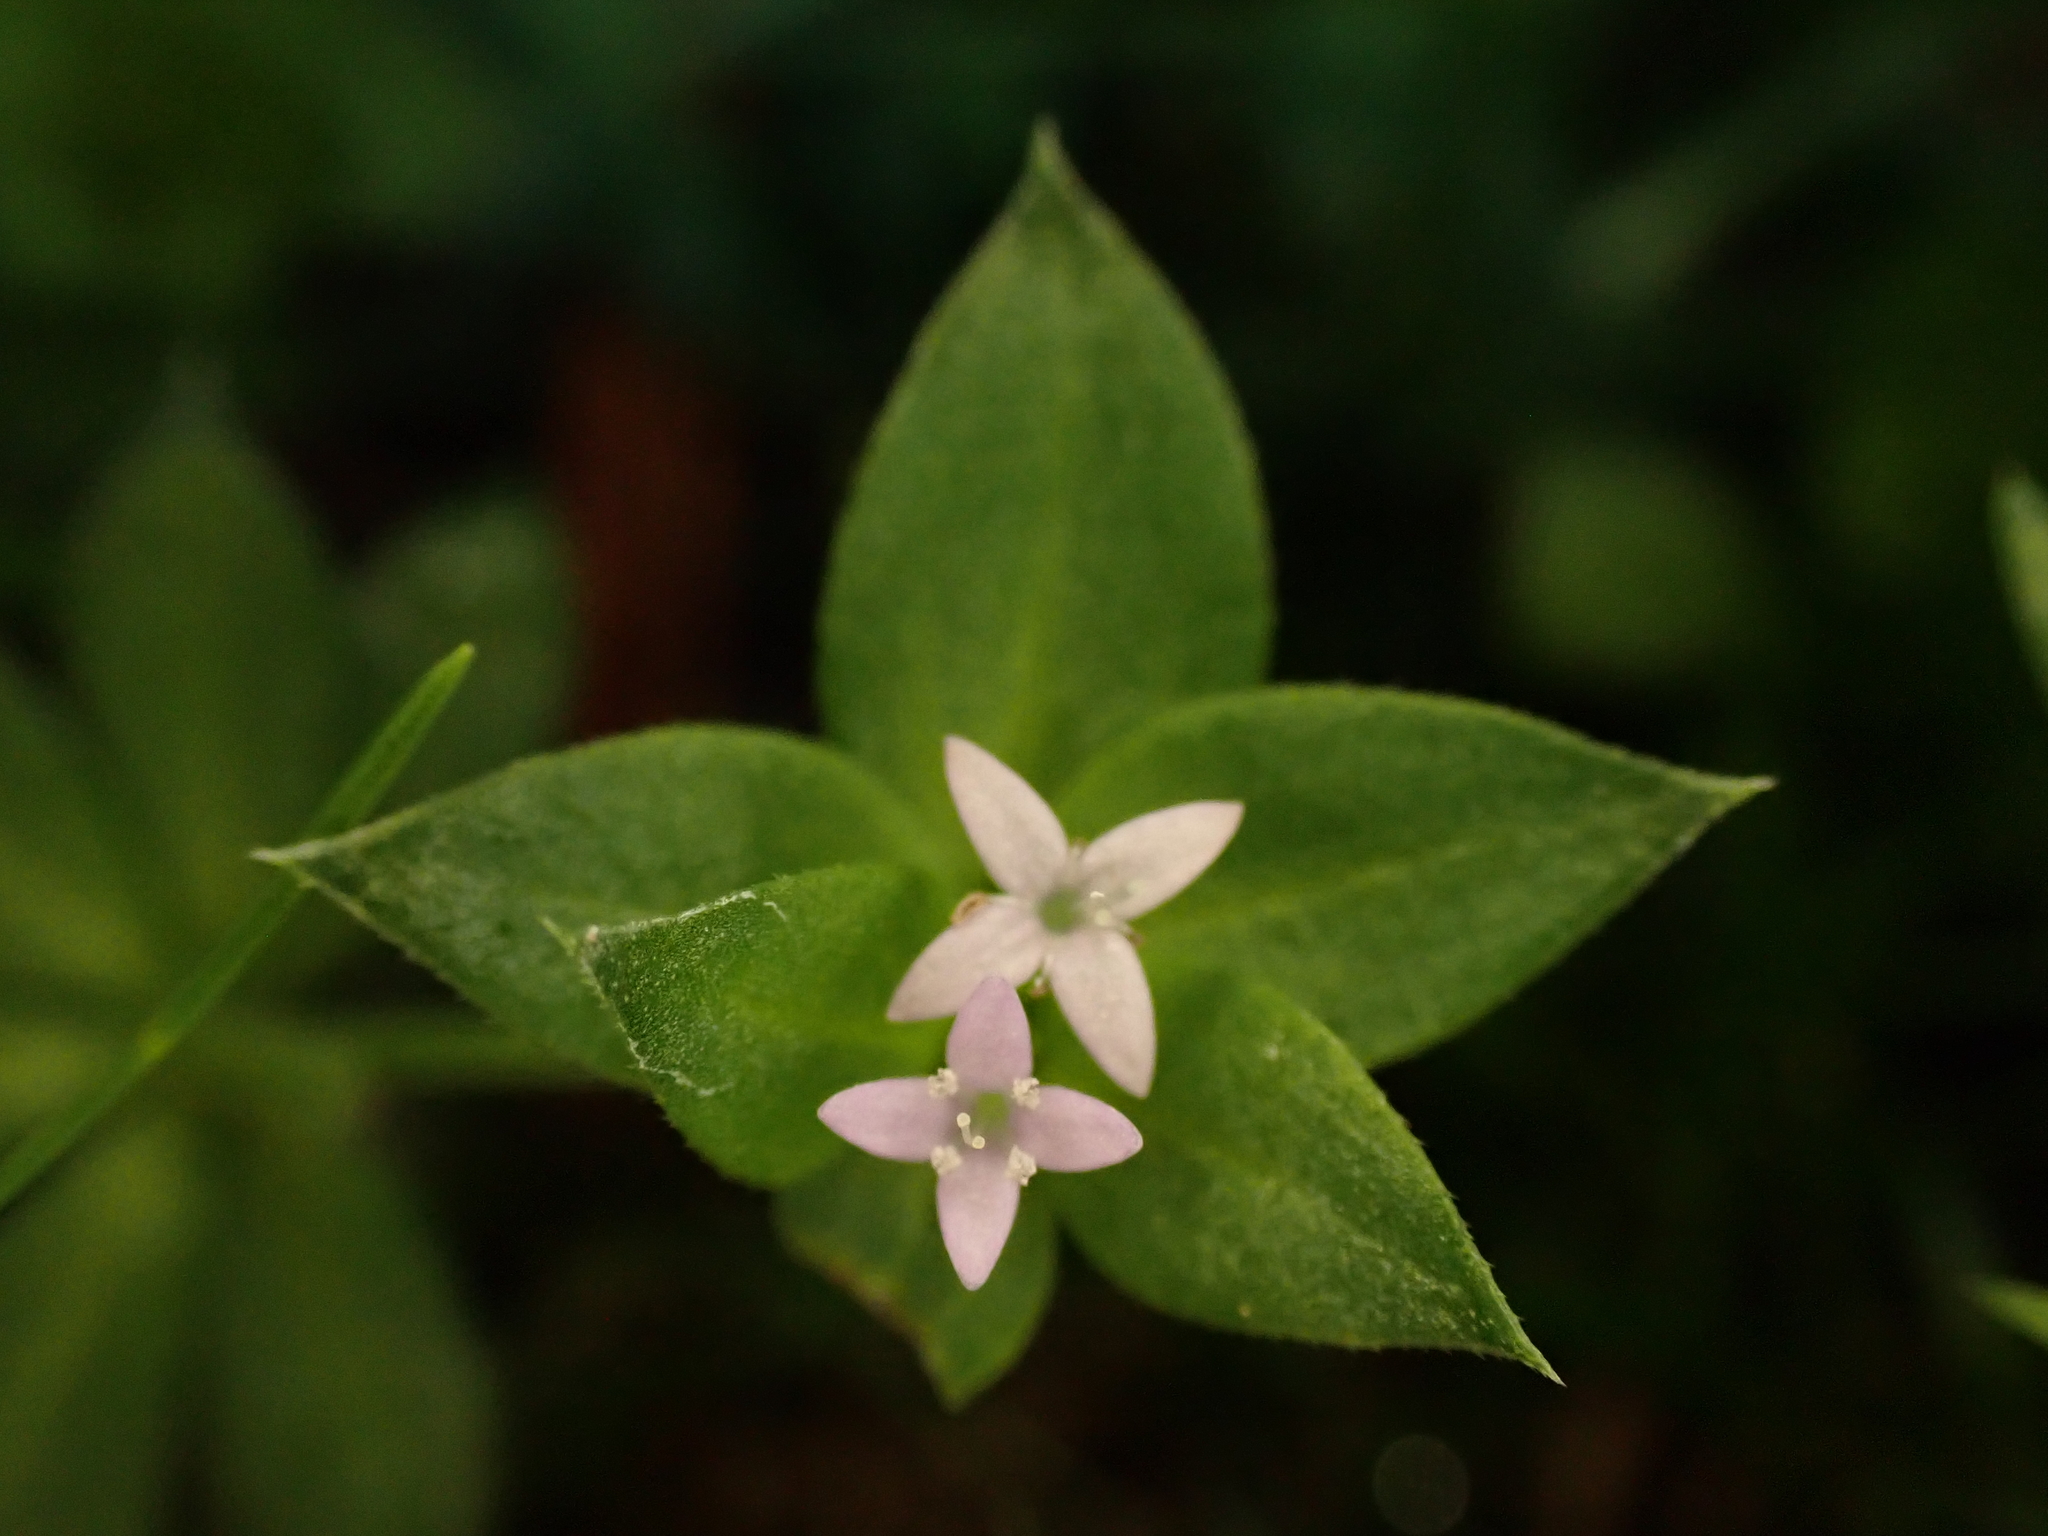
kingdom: Plantae
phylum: Tracheophyta
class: Magnoliopsida
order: Gentianales
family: Rubiaceae
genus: Sherardia
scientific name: Sherardia arvensis
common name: Field madder
